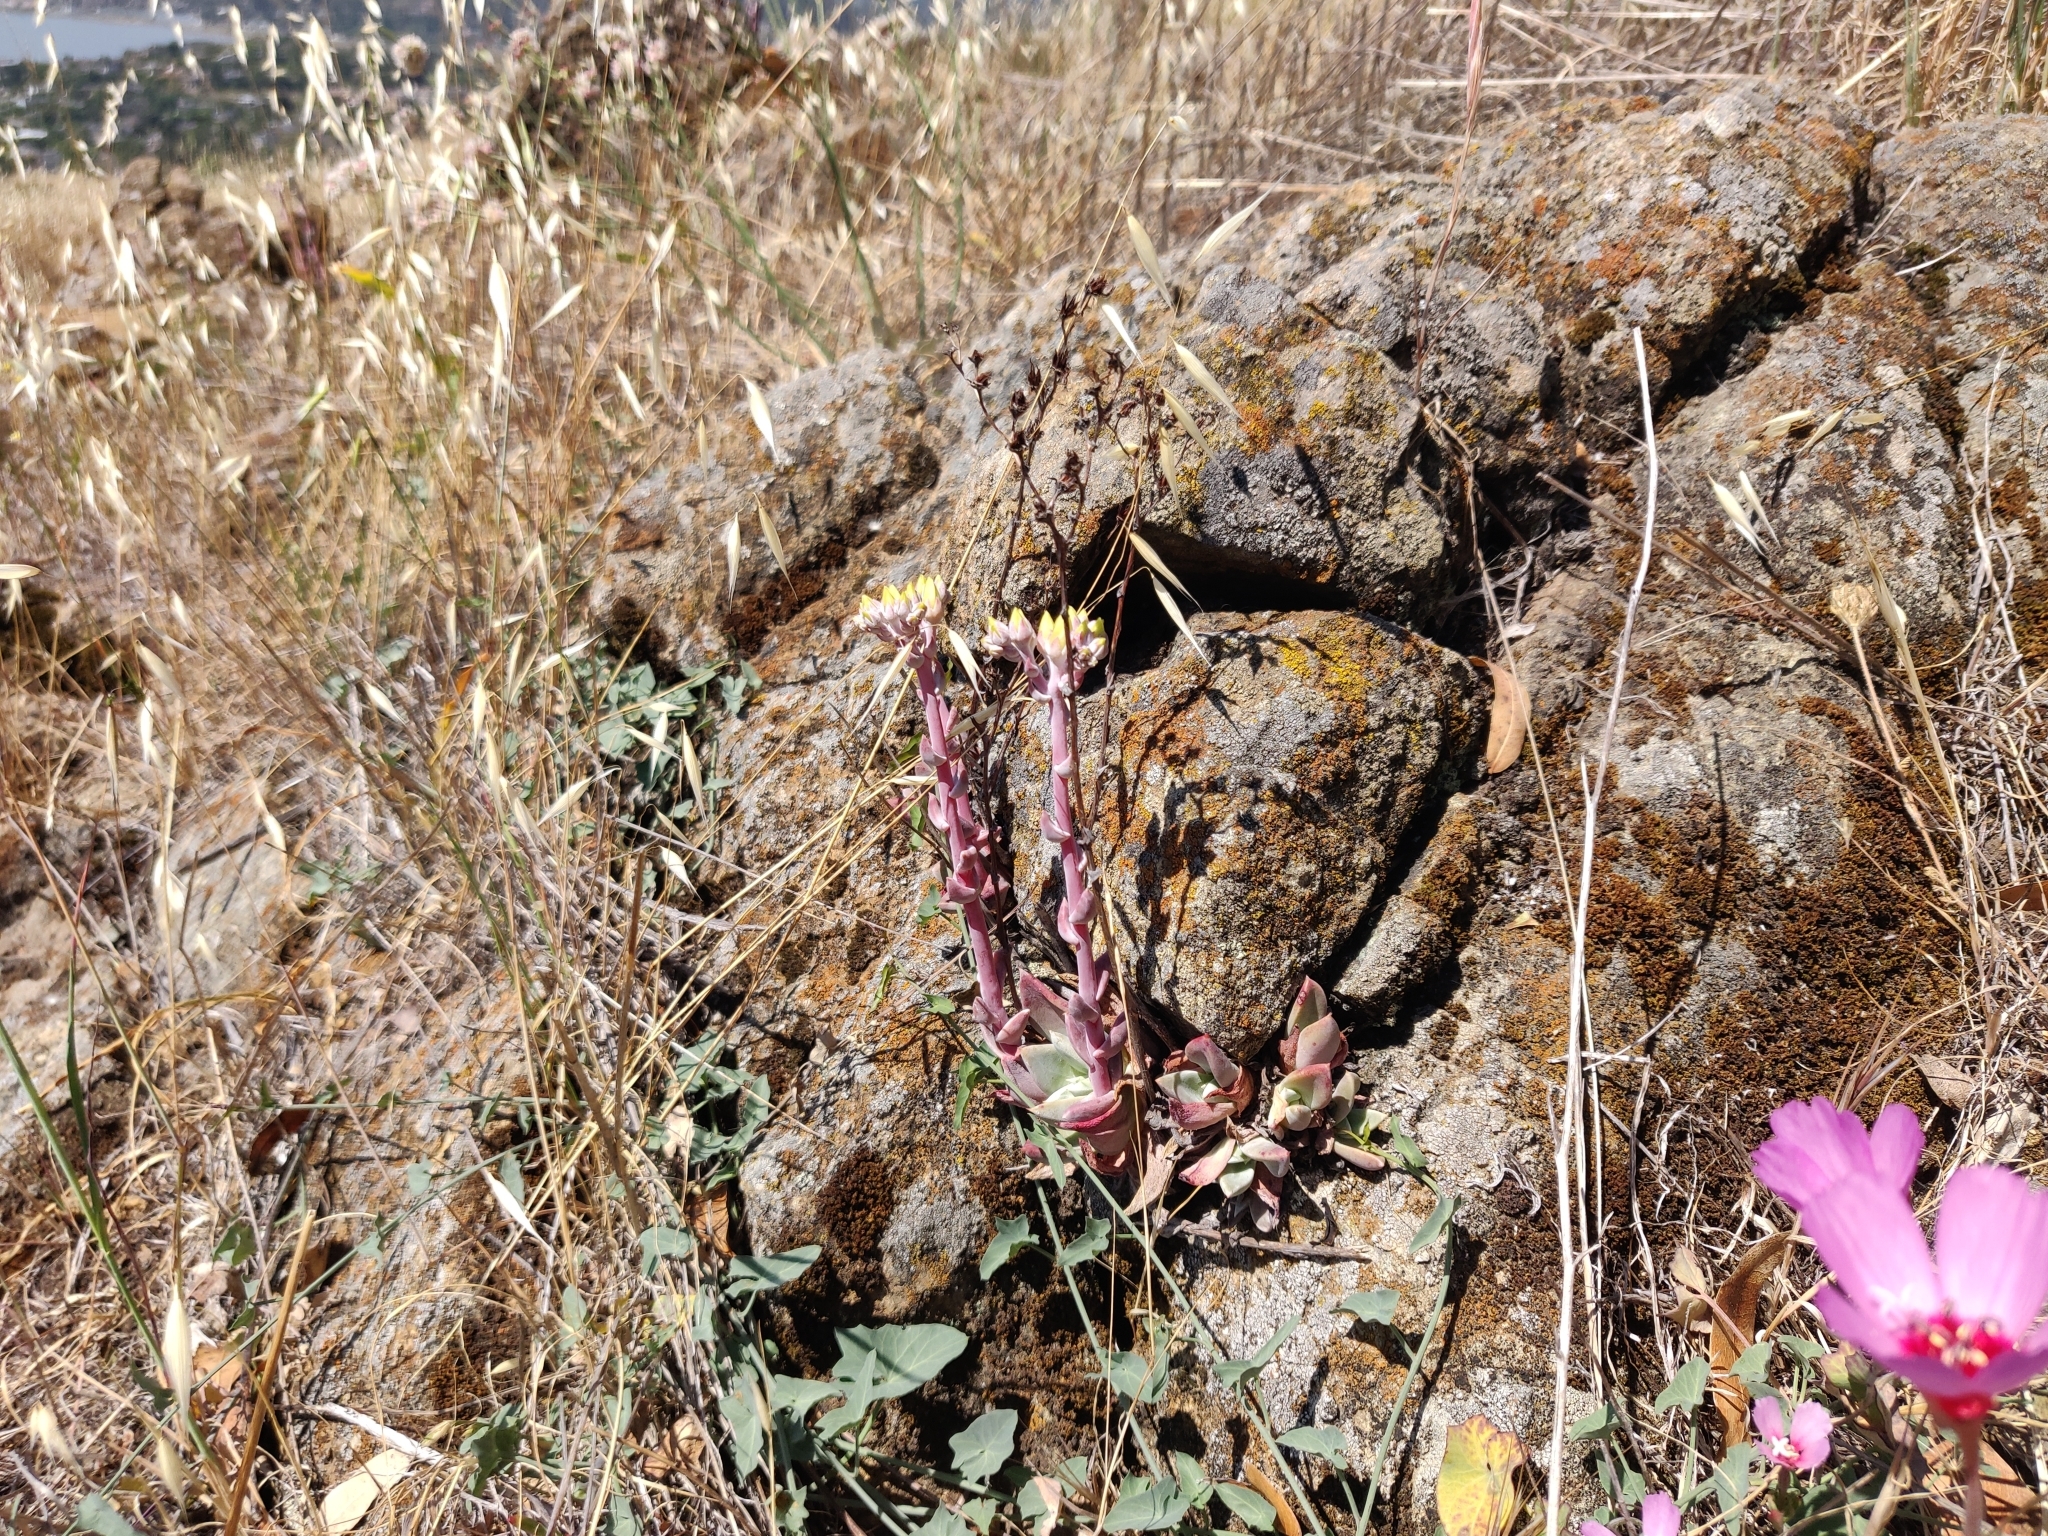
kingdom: Plantae
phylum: Tracheophyta
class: Magnoliopsida
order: Saxifragales
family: Crassulaceae
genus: Dudleya
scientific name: Dudleya farinosa
